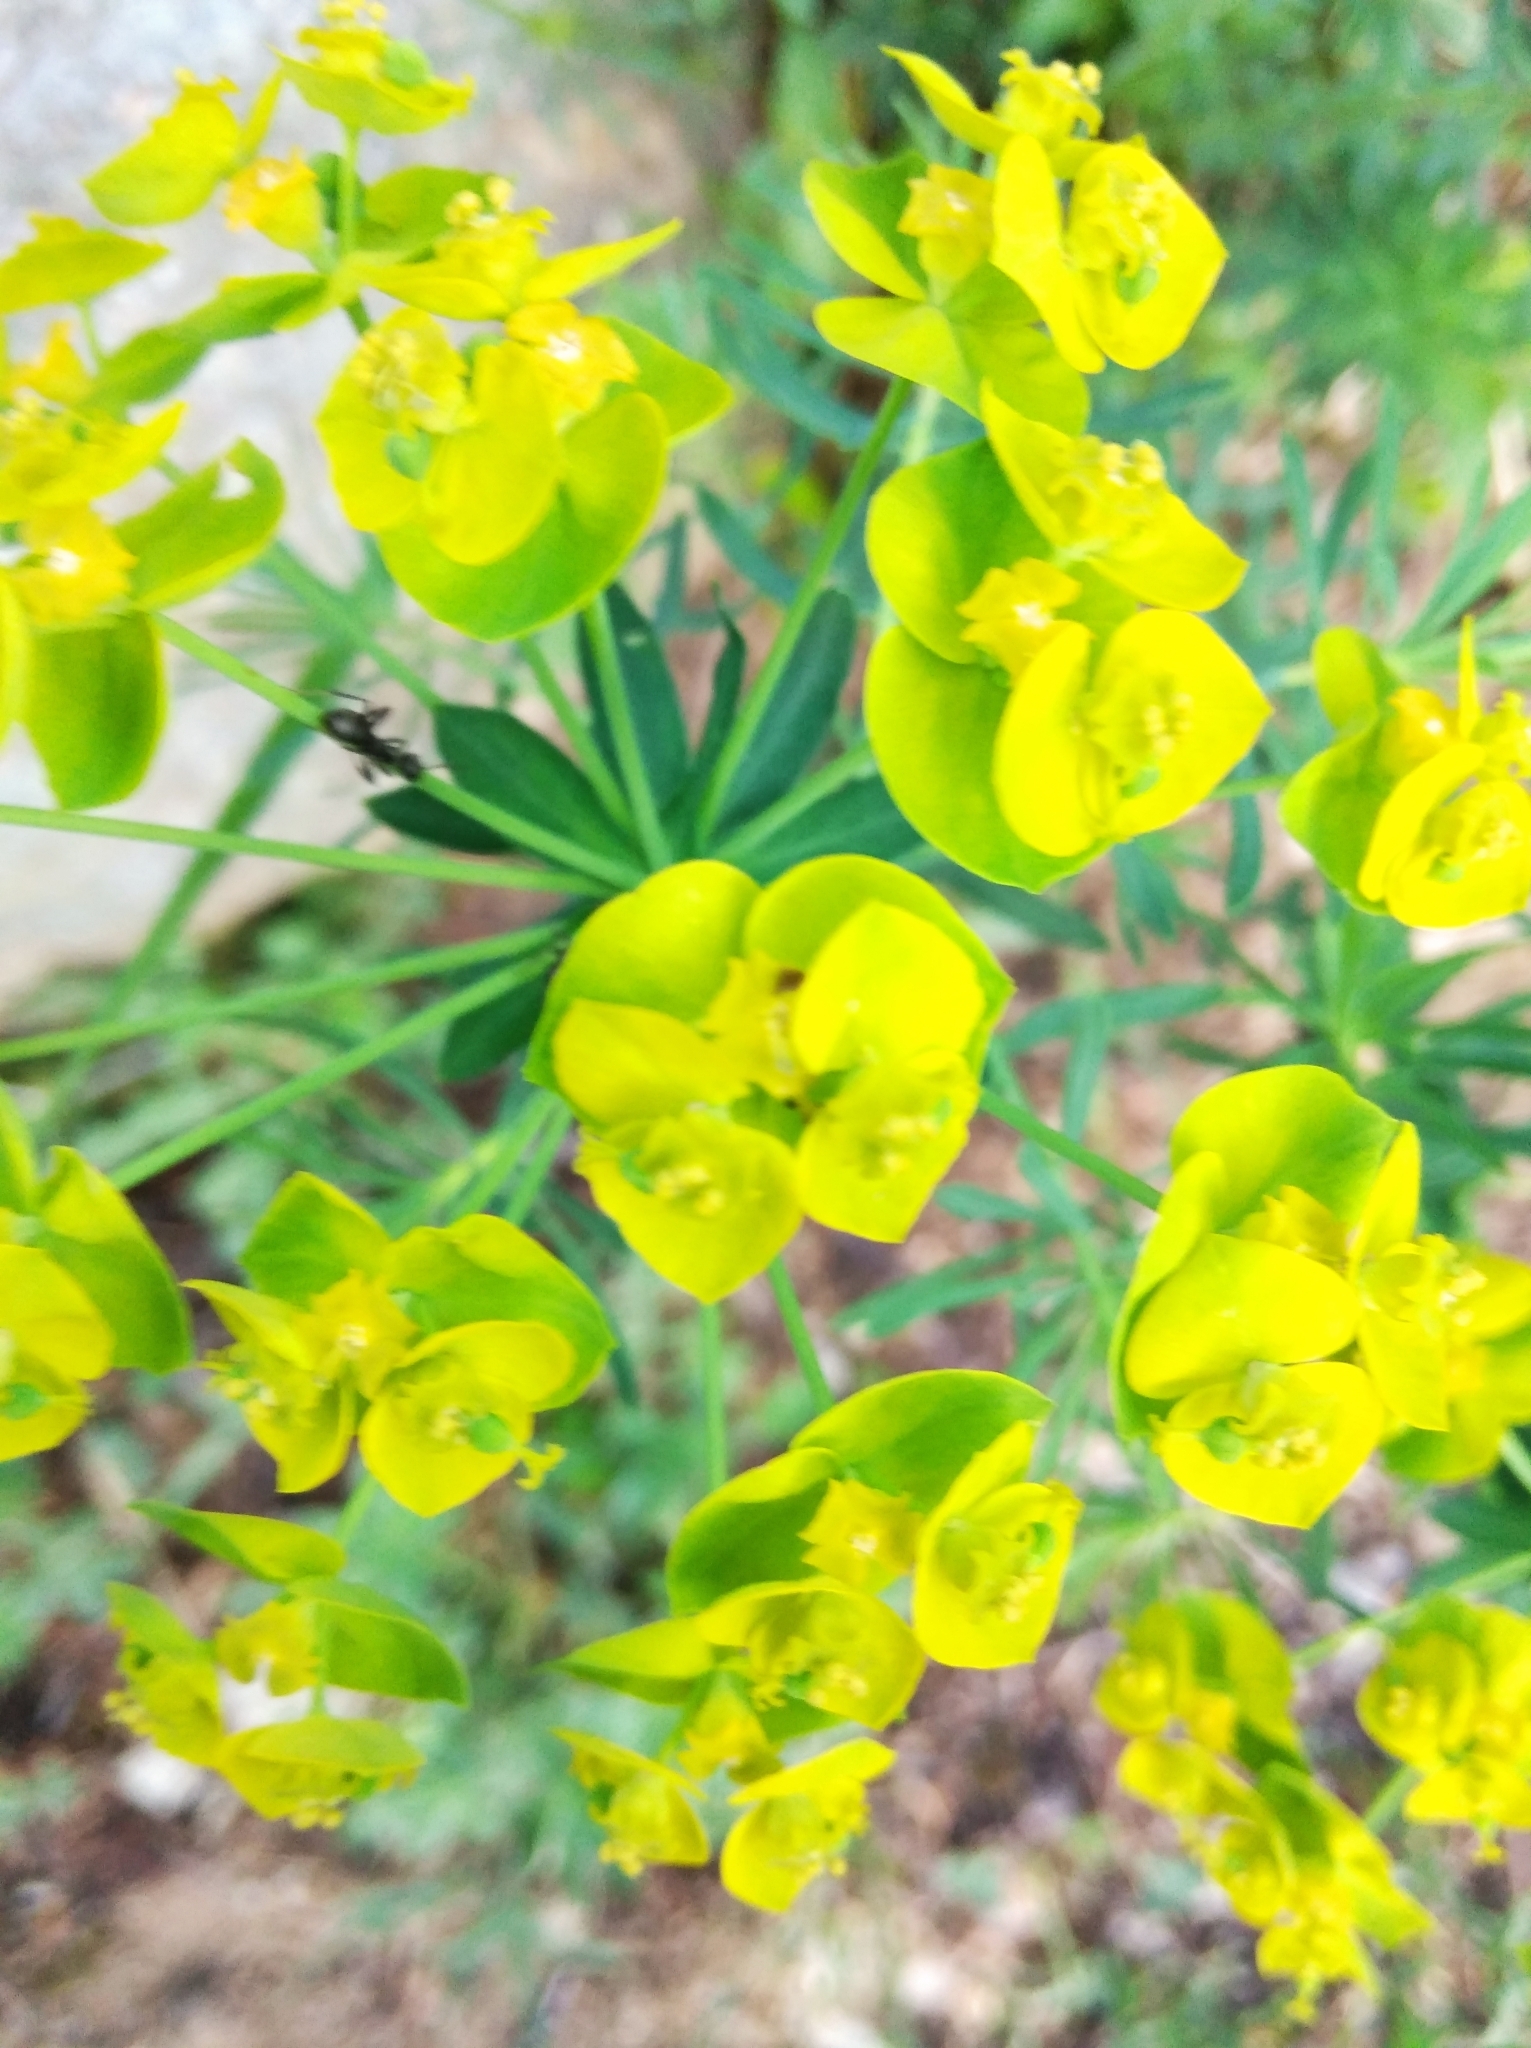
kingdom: Plantae
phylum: Tracheophyta
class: Magnoliopsida
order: Malpighiales
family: Euphorbiaceae
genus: Euphorbia
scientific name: Euphorbia virgata
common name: Leafy spurge
